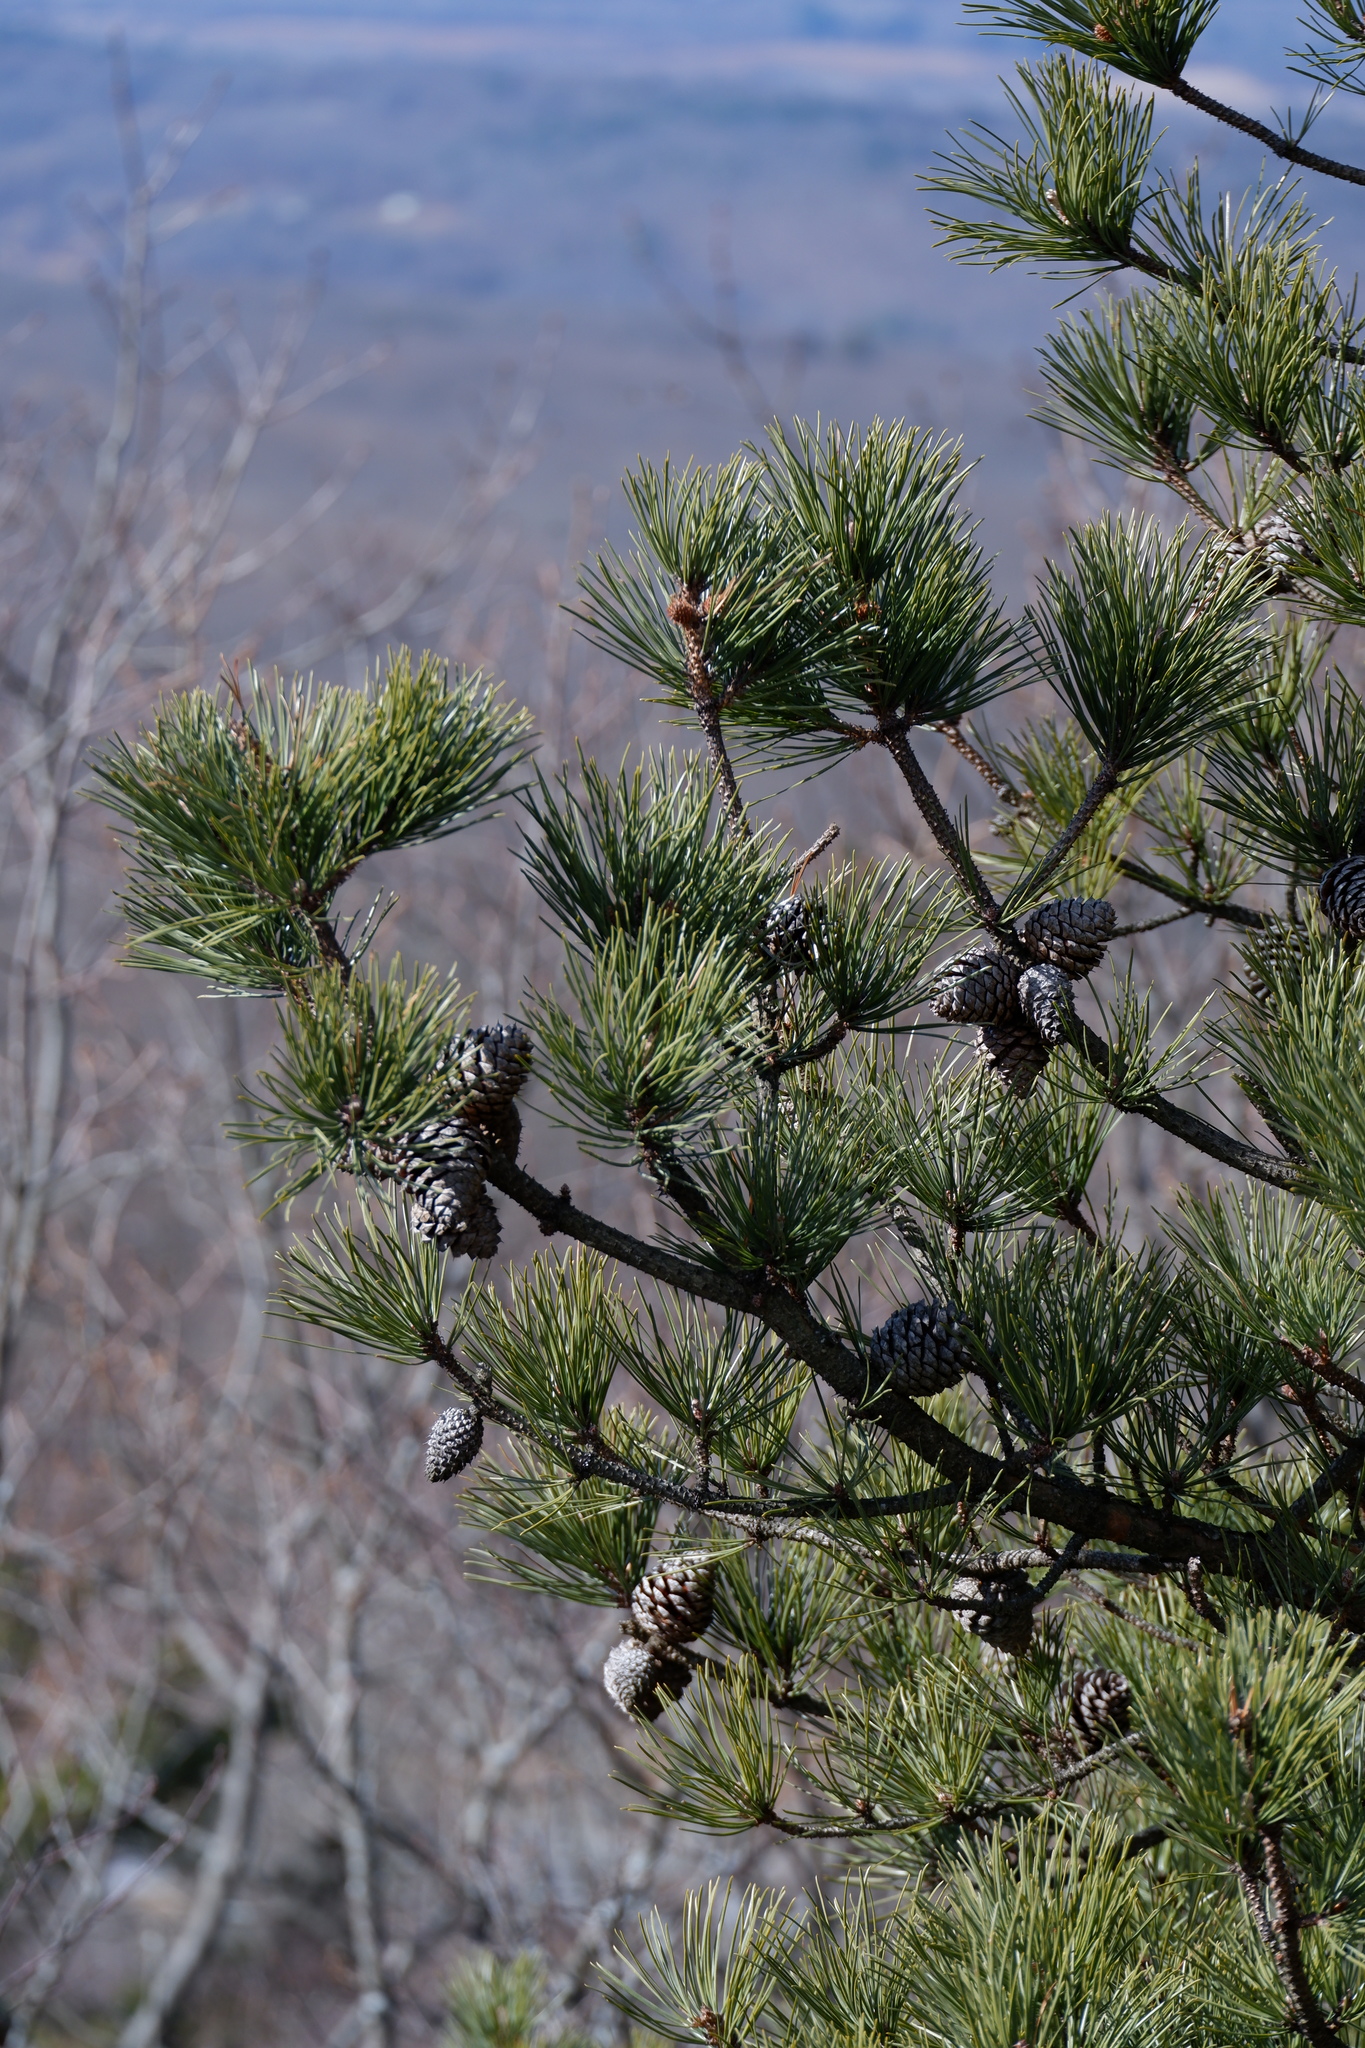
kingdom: Plantae
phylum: Tracheophyta
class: Pinopsida
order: Pinales
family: Pinaceae
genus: Pinus
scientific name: Pinus rigida
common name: Pitch pine
